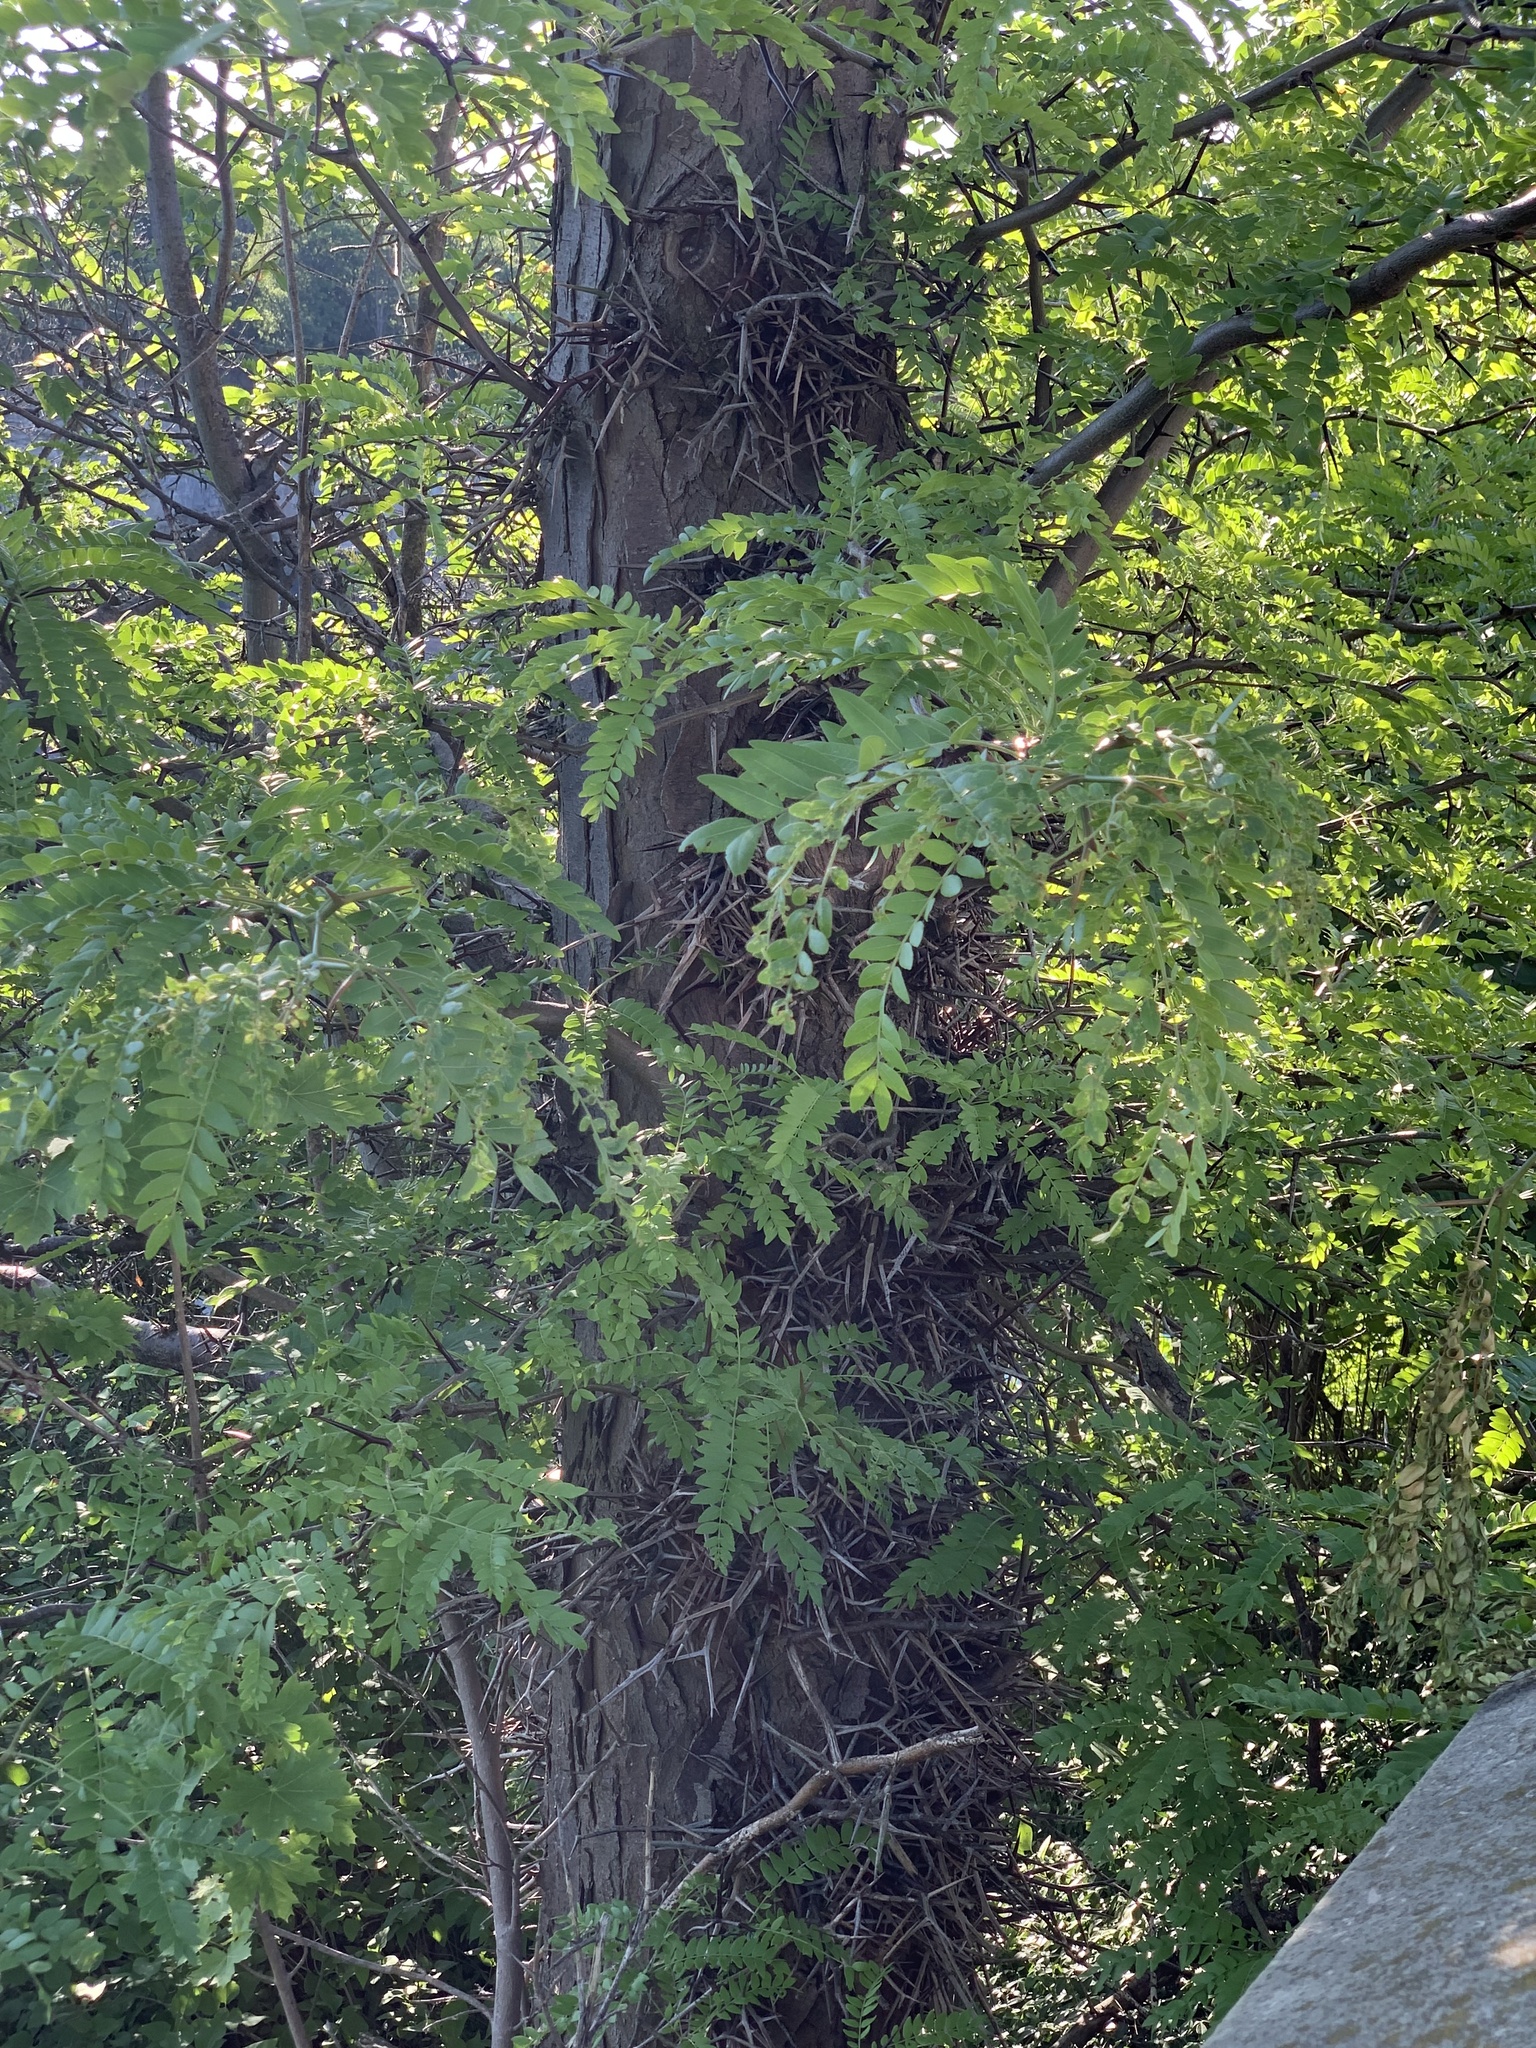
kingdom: Plantae
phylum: Tracheophyta
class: Magnoliopsida
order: Fabales
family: Fabaceae
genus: Gleditsia
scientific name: Gleditsia triacanthos
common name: Common honeylocust
